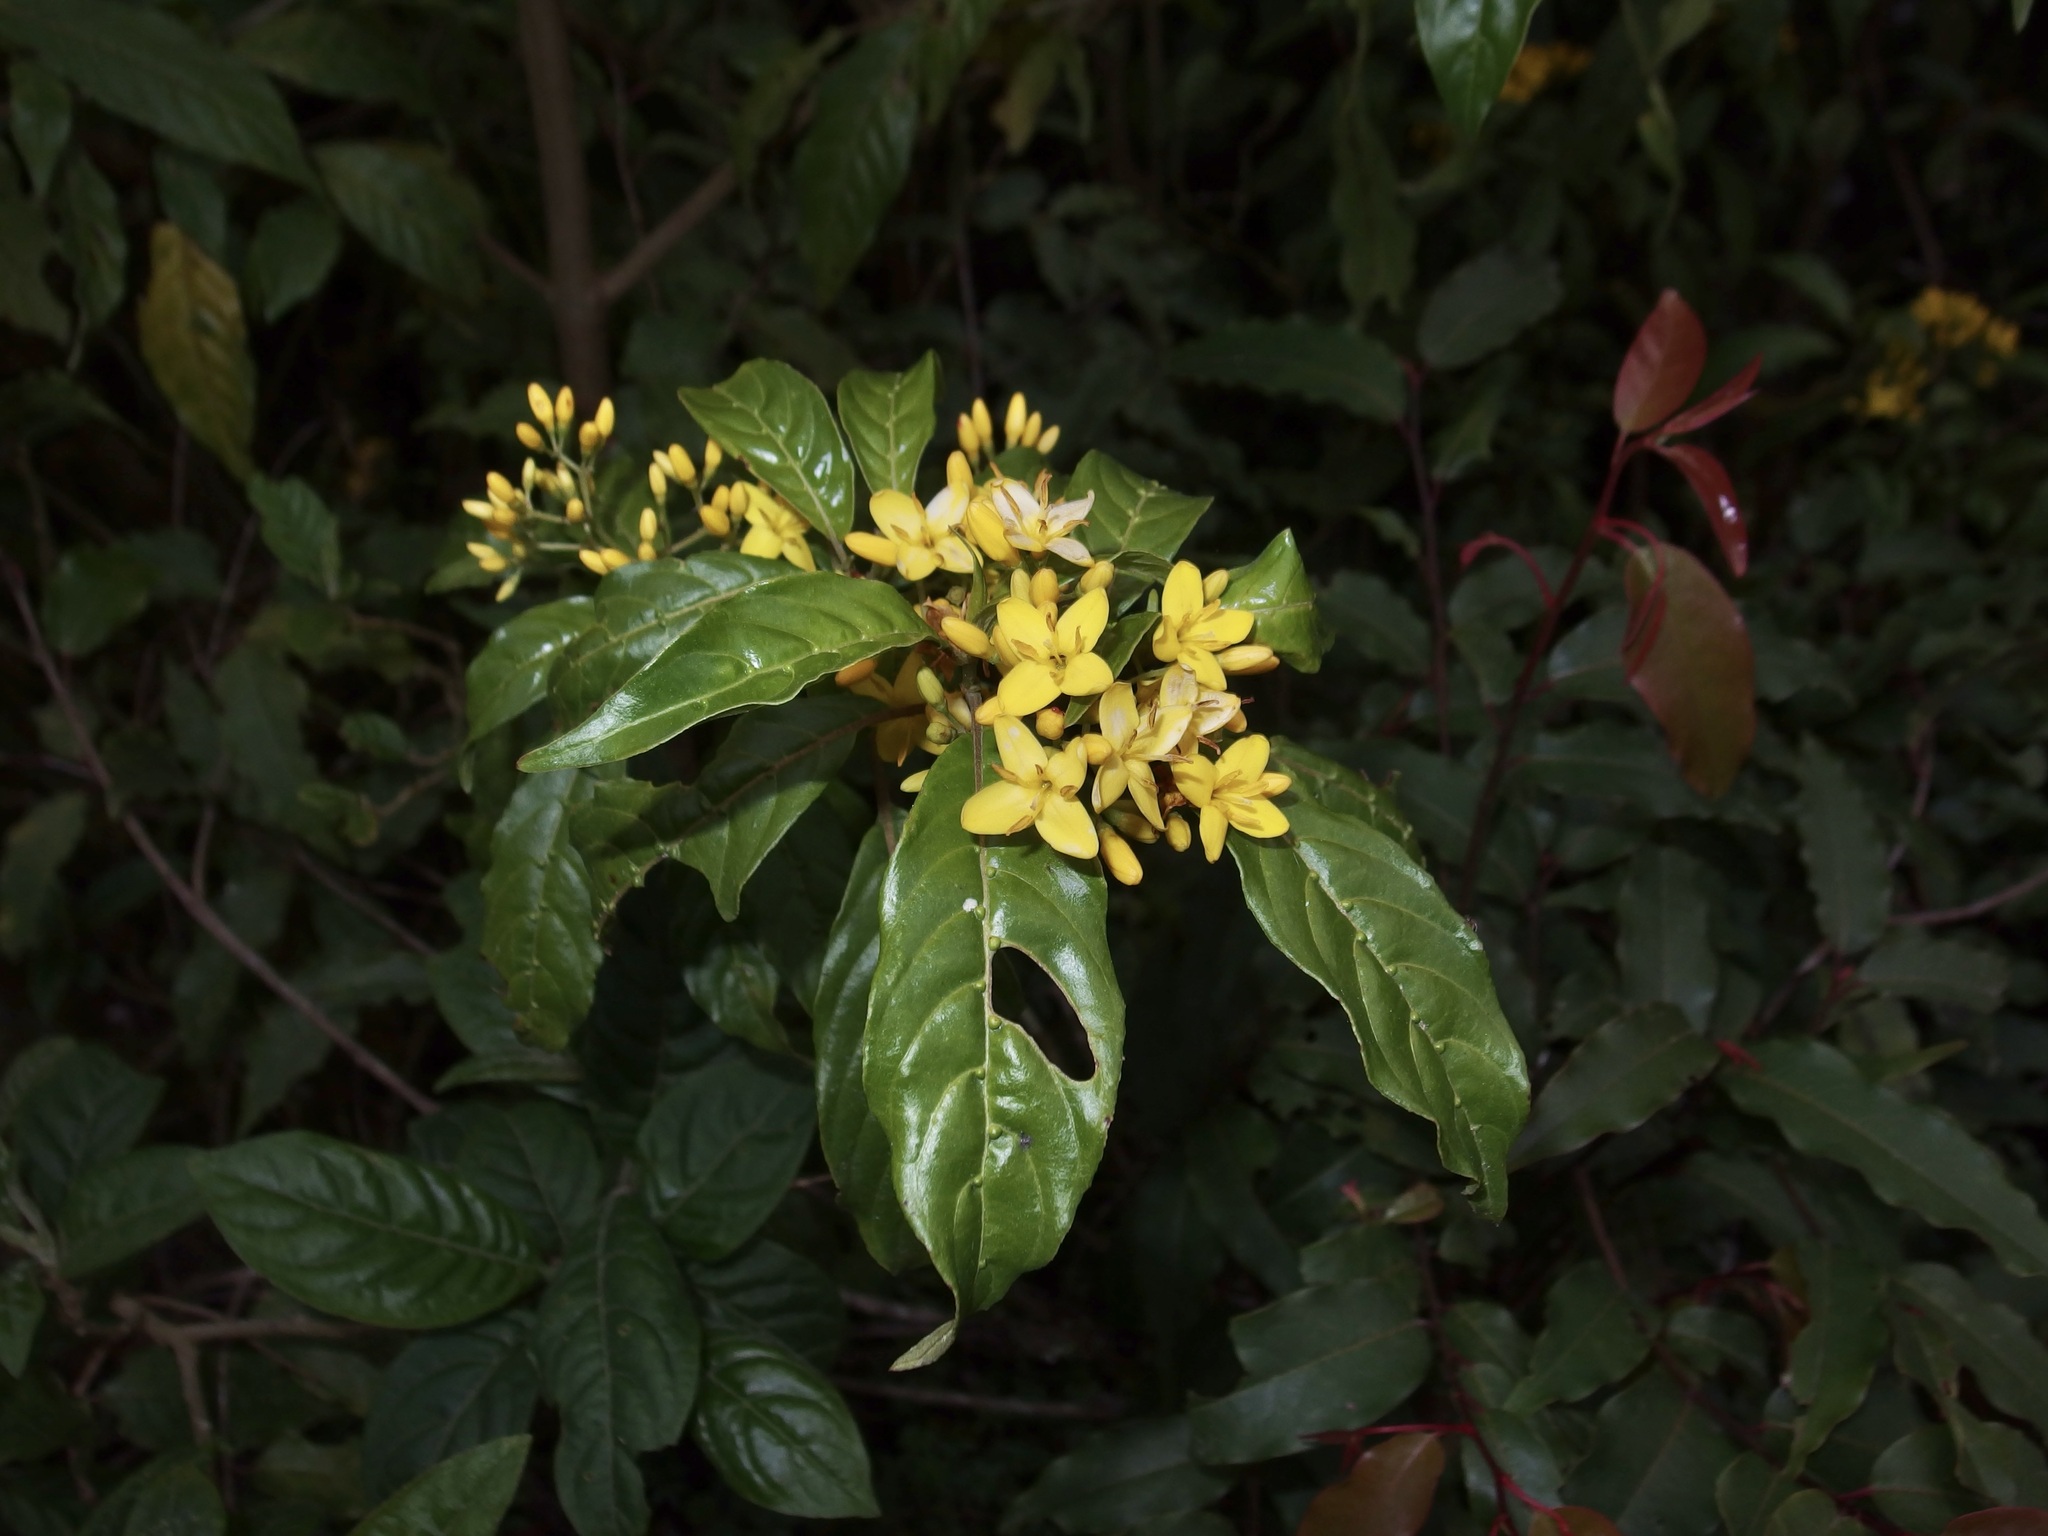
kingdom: Plantae
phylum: Tracheophyta
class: Magnoliopsida
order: Gentianales
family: Rubiaceae
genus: Deppea
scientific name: Deppea grandiflora
